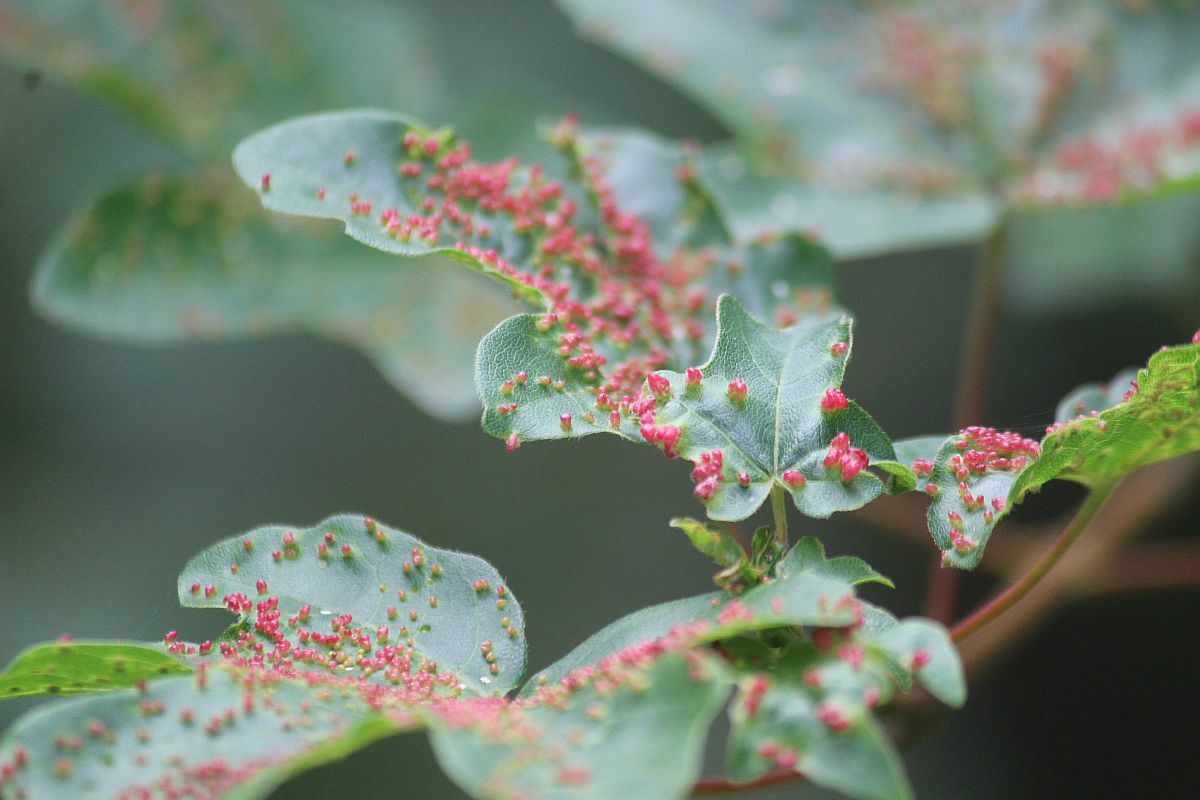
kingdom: Animalia
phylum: Arthropoda
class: Arachnida
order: Trombidiformes
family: Eriophyidae
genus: Aceria
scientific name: Aceria myriadeum
